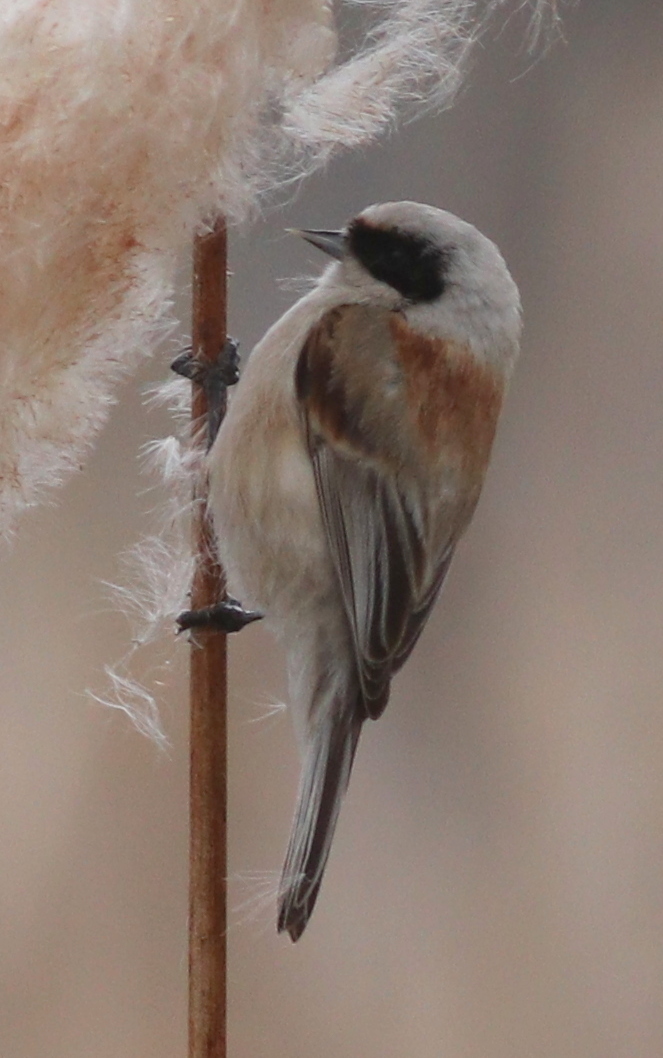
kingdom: Animalia
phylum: Chordata
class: Aves
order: Passeriformes
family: Remizidae
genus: Remiz
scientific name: Remiz pendulinus
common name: Eurasian penduline tit
